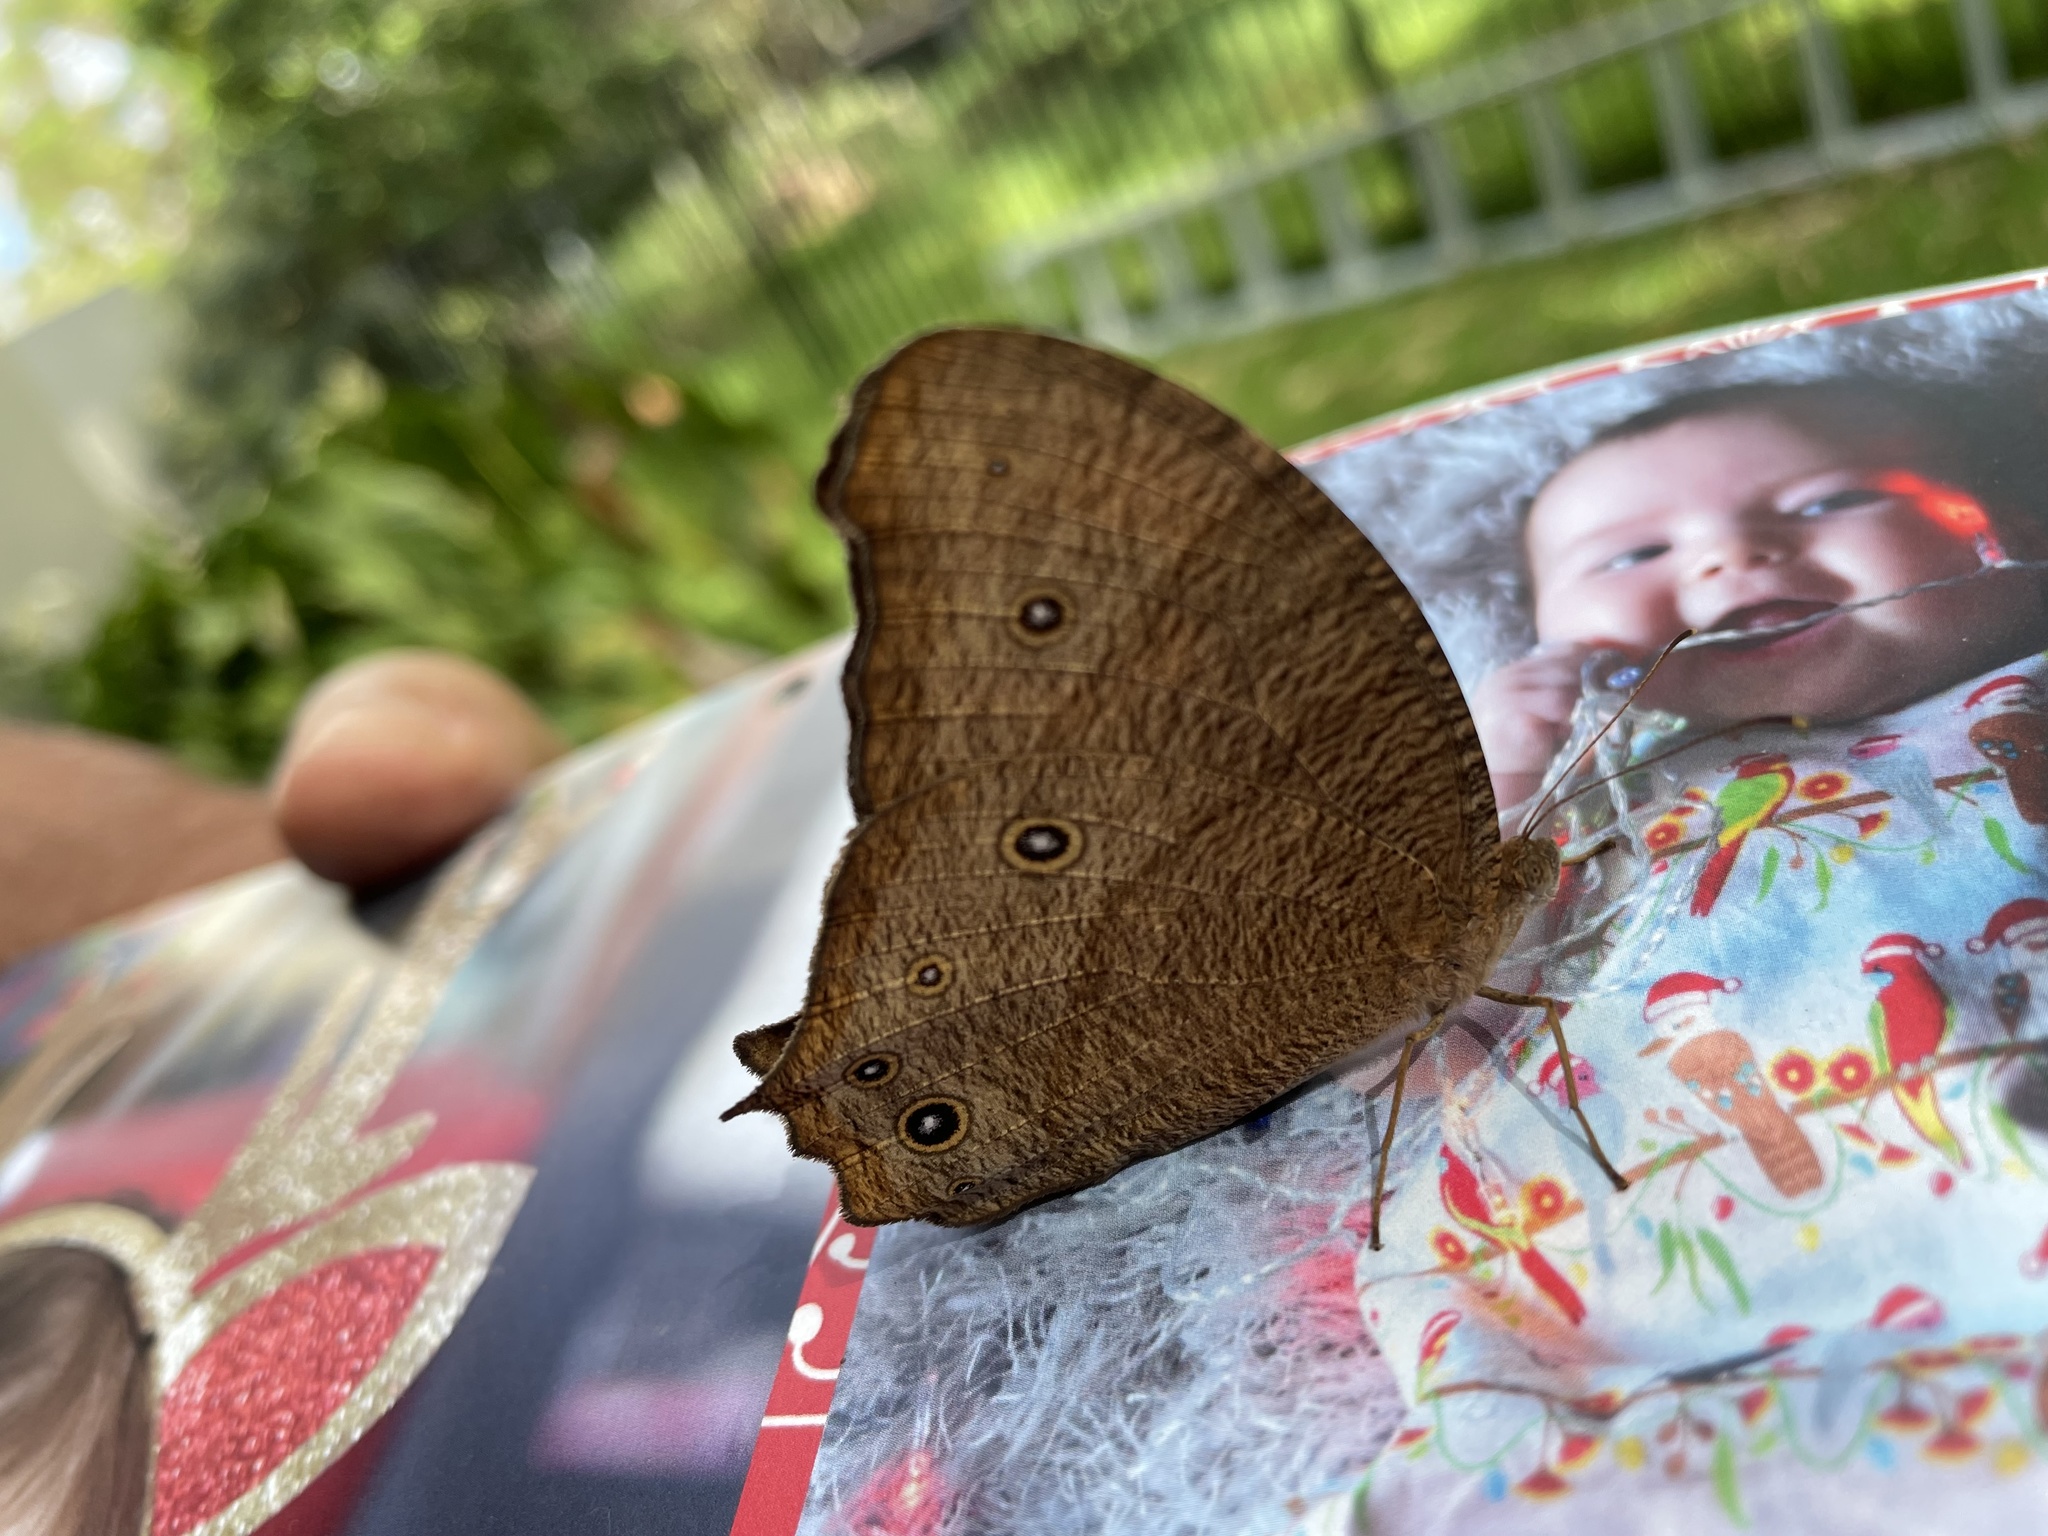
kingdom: Animalia
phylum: Arthropoda
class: Insecta
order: Lepidoptera
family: Nymphalidae
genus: Melanitis
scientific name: Melanitis leda
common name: Twilight brown
